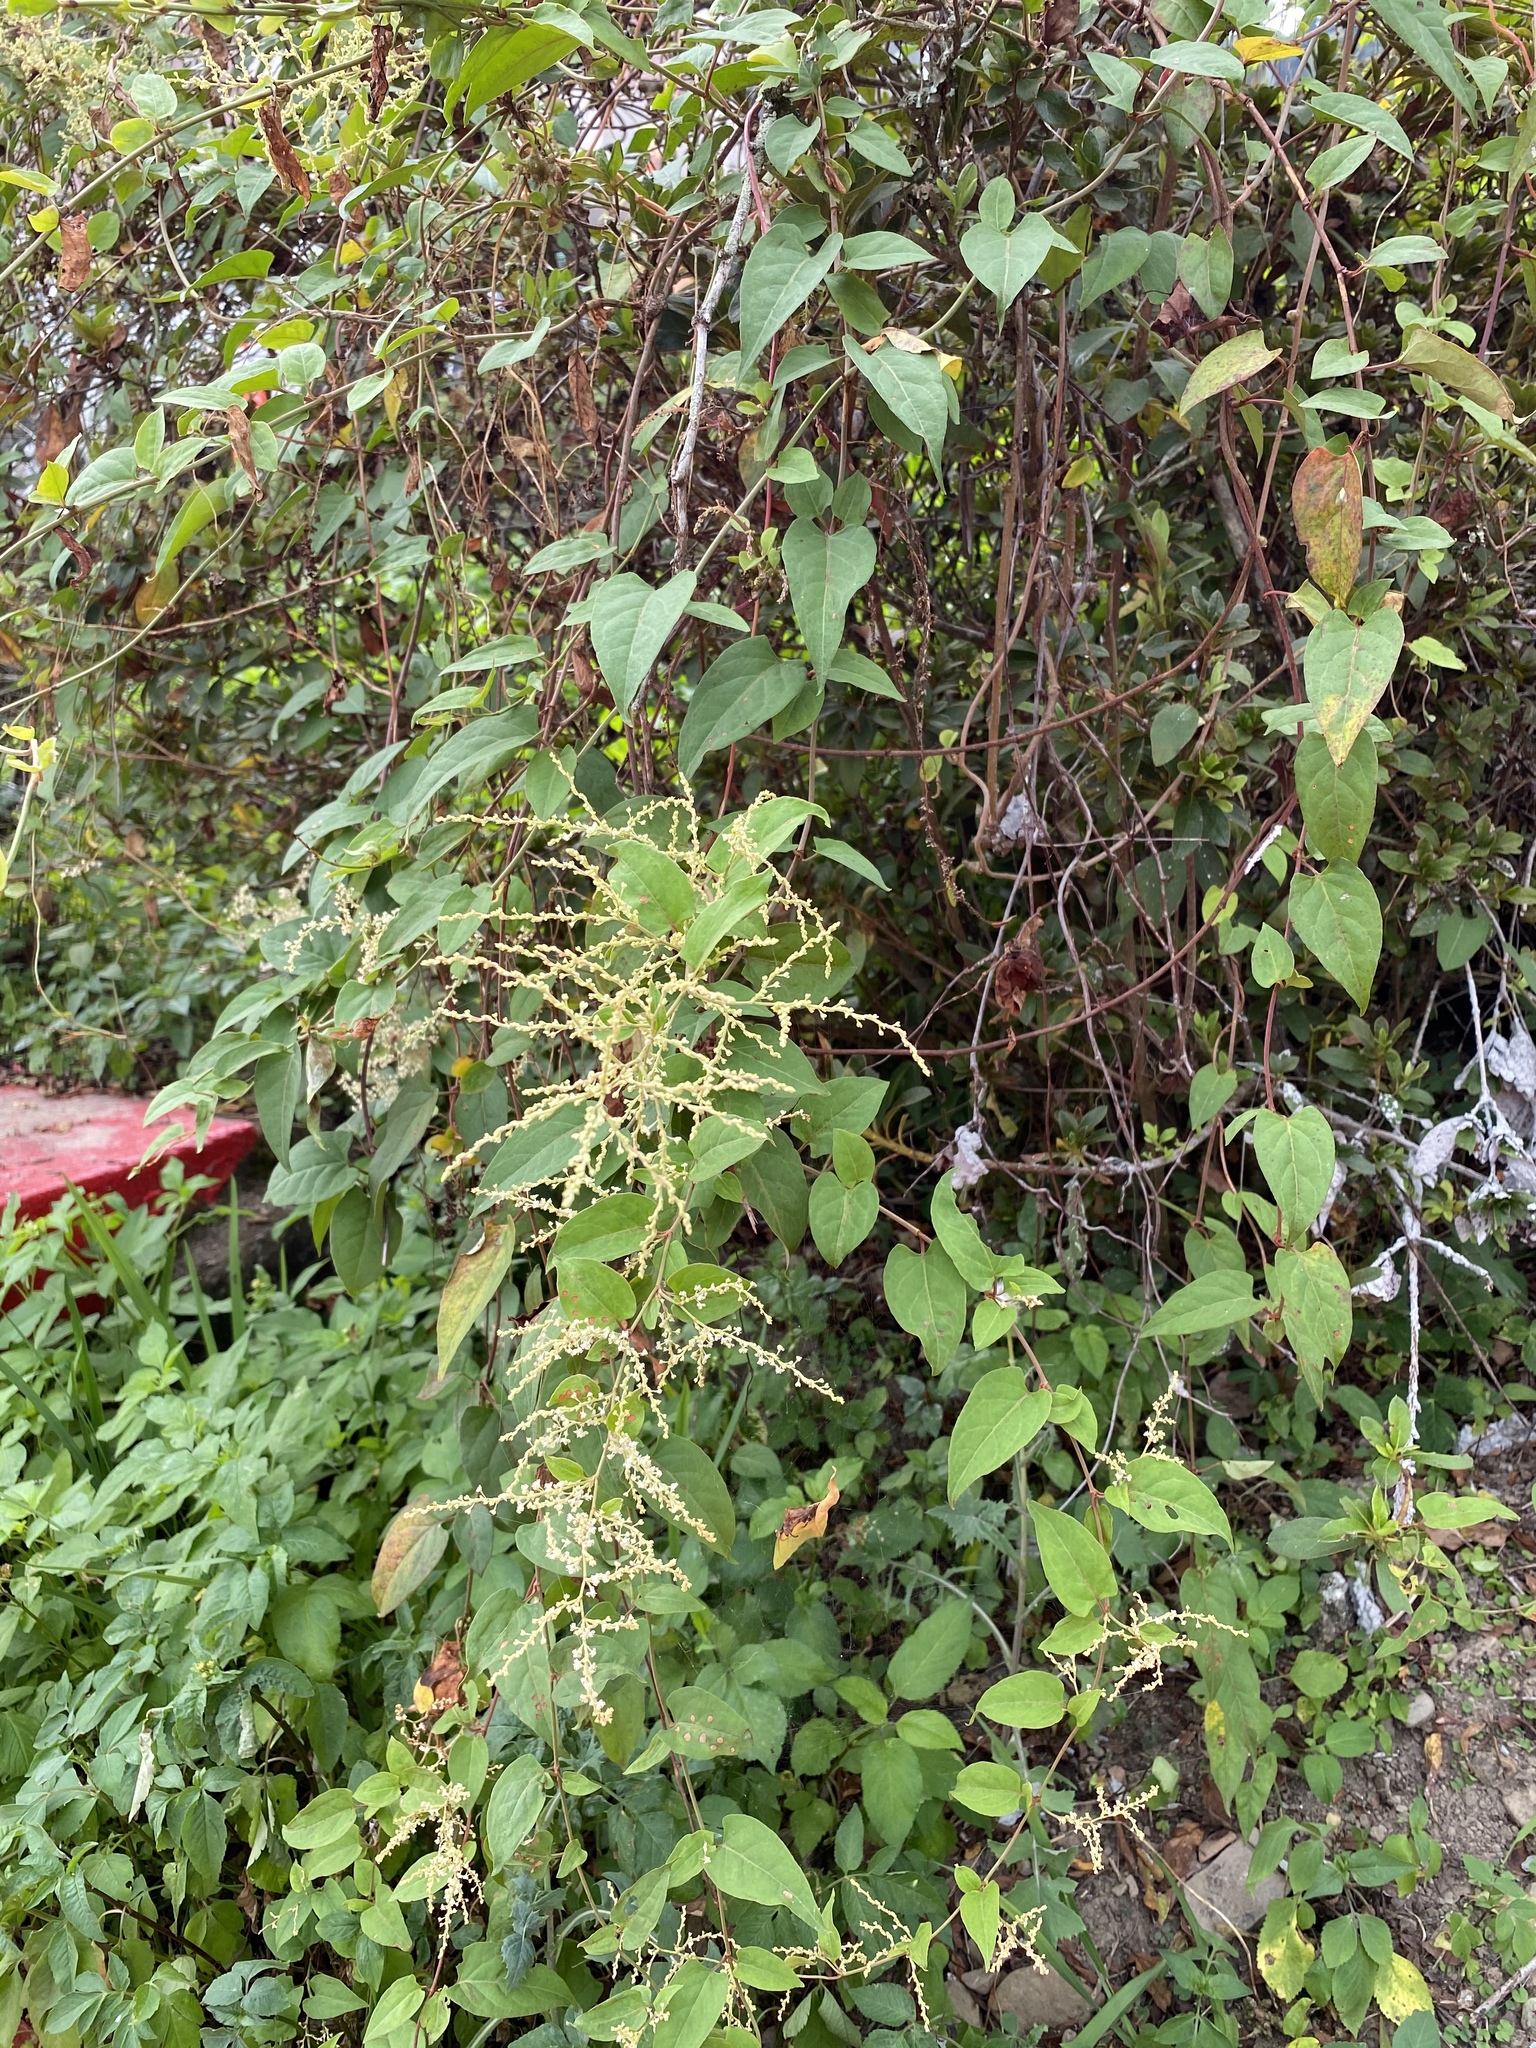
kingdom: Plantae
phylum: Tracheophyta
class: Magnoliopsida
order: Caryophyllales
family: Polygonaceae
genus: Reynoutria
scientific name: Reynoutria multiflora
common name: Chinese fleeceflower
